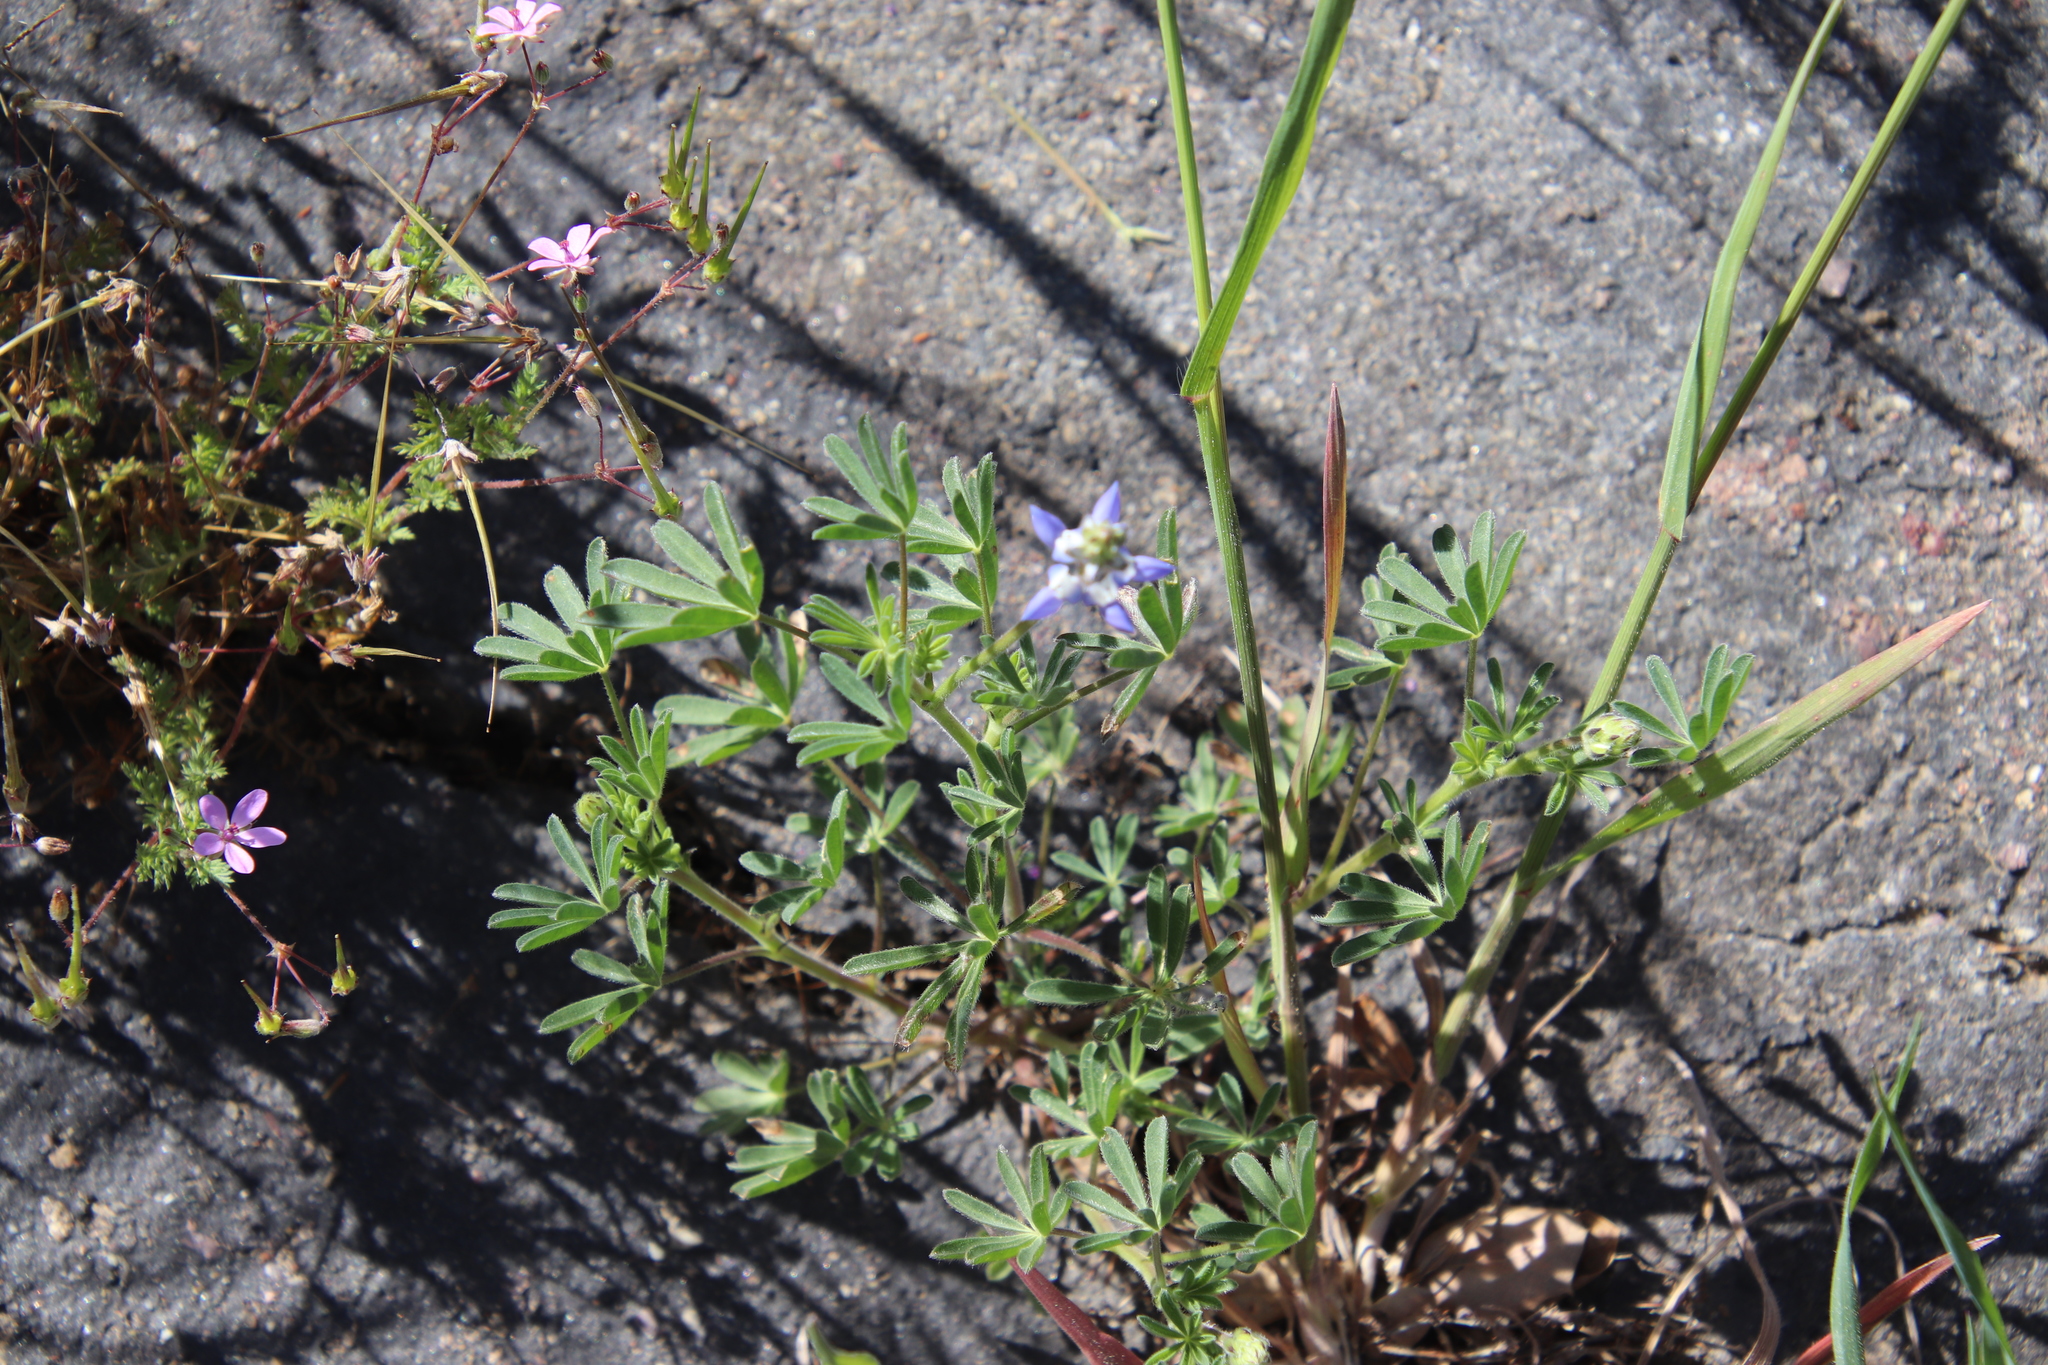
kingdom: Plantae
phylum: Tracheophyta
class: Magnoliopsida
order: Fabales
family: Fabaceae
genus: Lupinus
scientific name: Lupinus bicolor
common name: Miniature lupine
